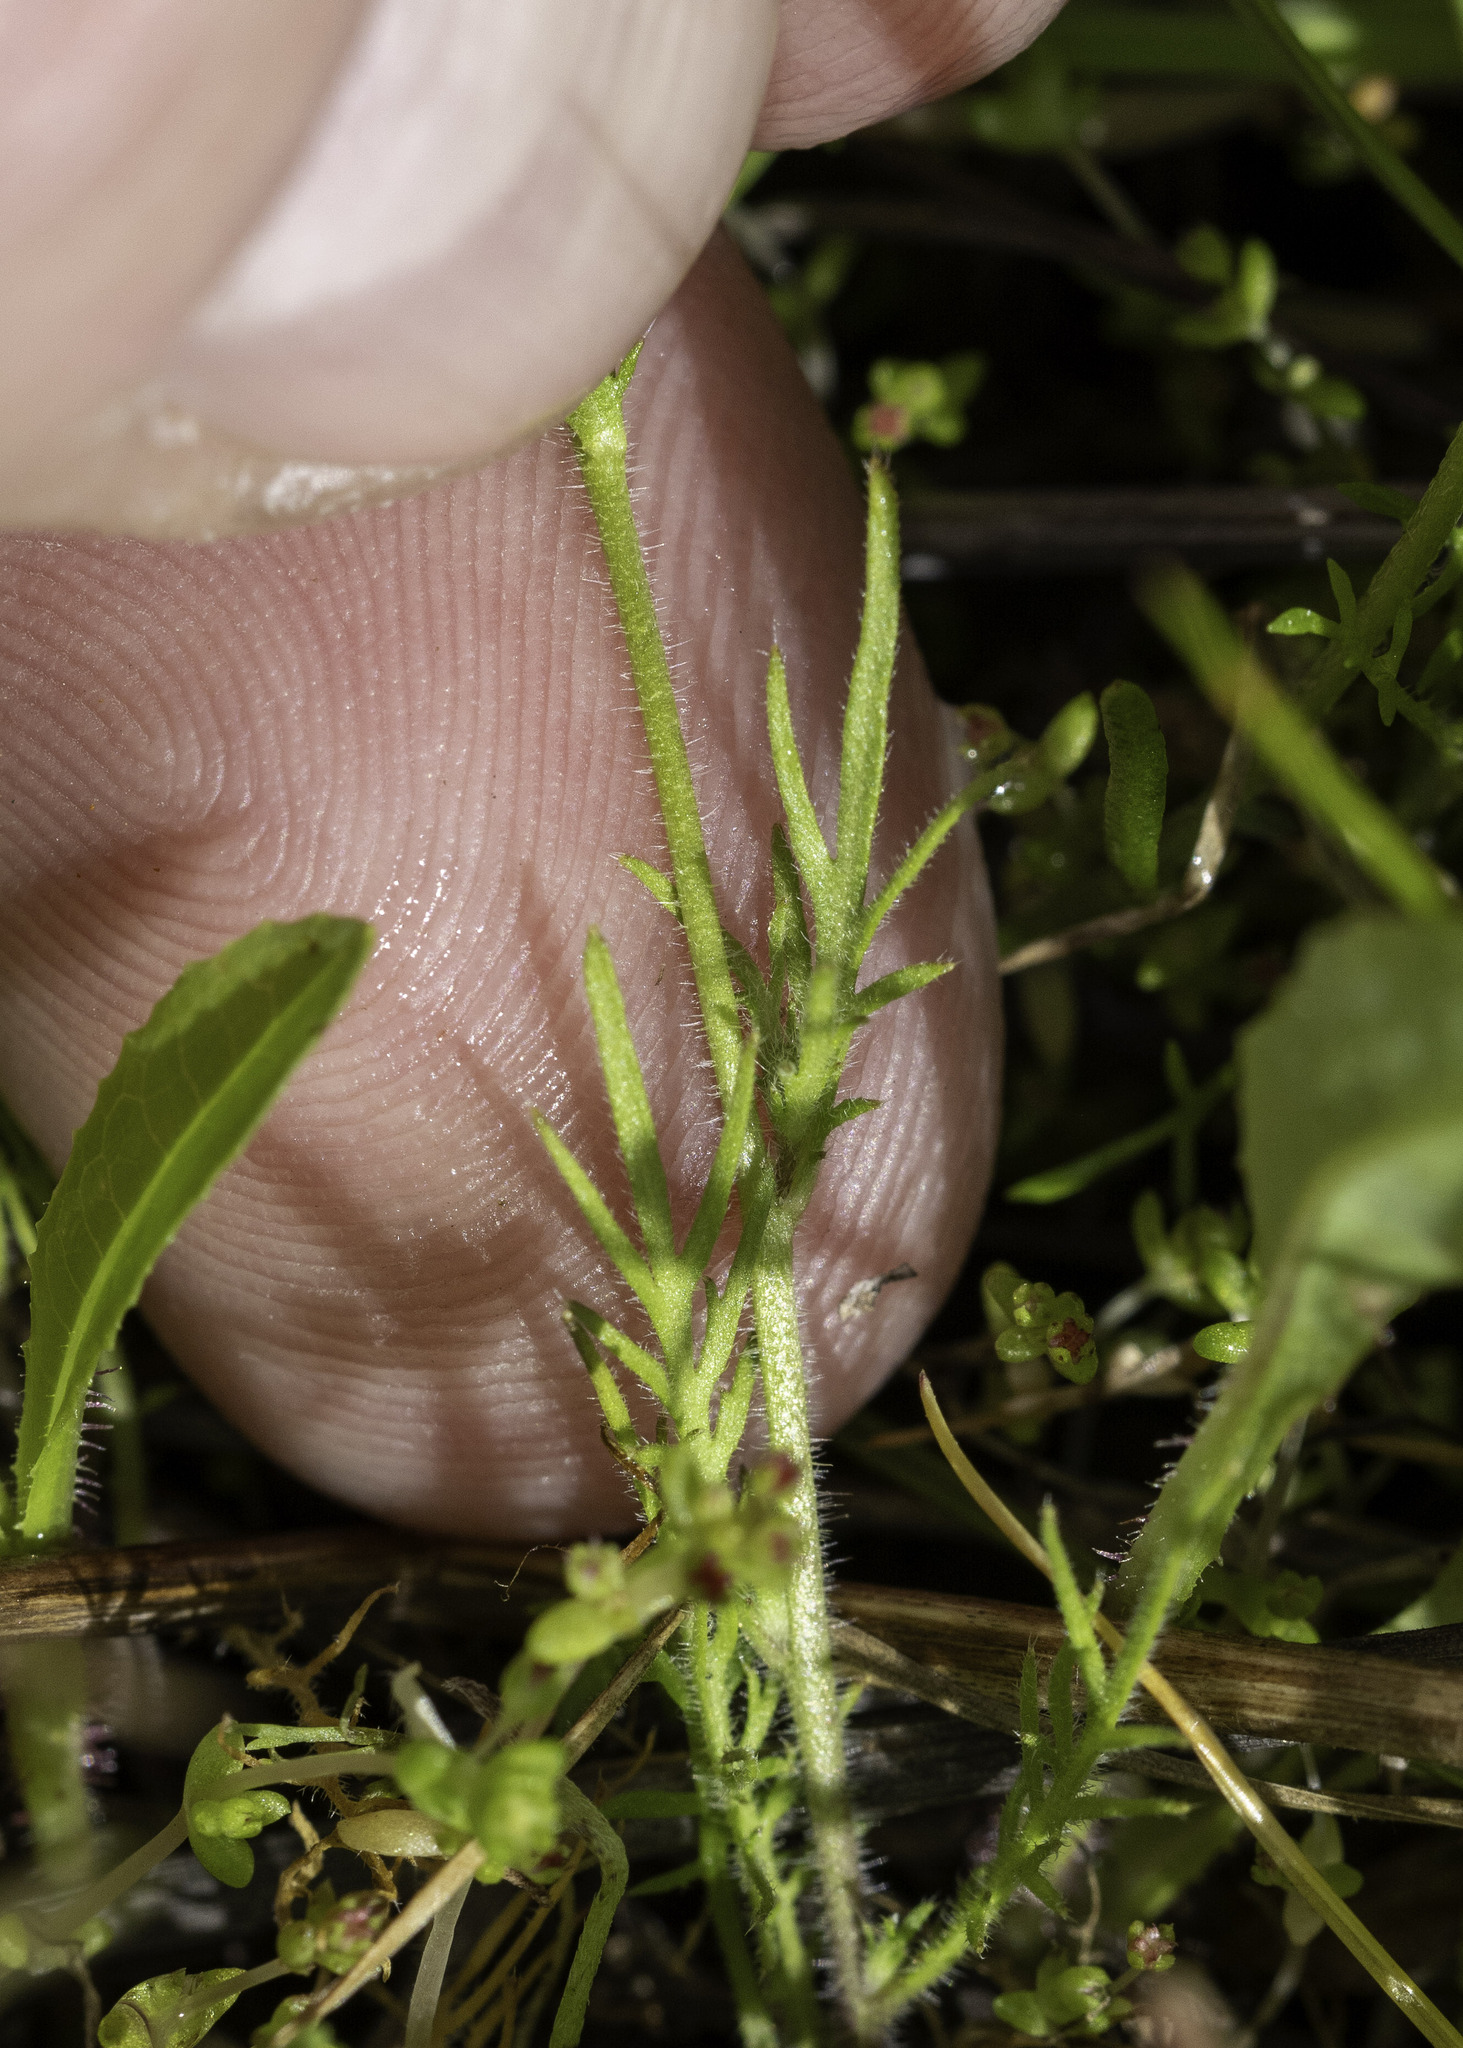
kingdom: Plantae
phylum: Tracheophyta
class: Magnoliopsida
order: Brassicales
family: Brassicaceae
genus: Tropidocarpum
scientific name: Tropidocarpum gracile
